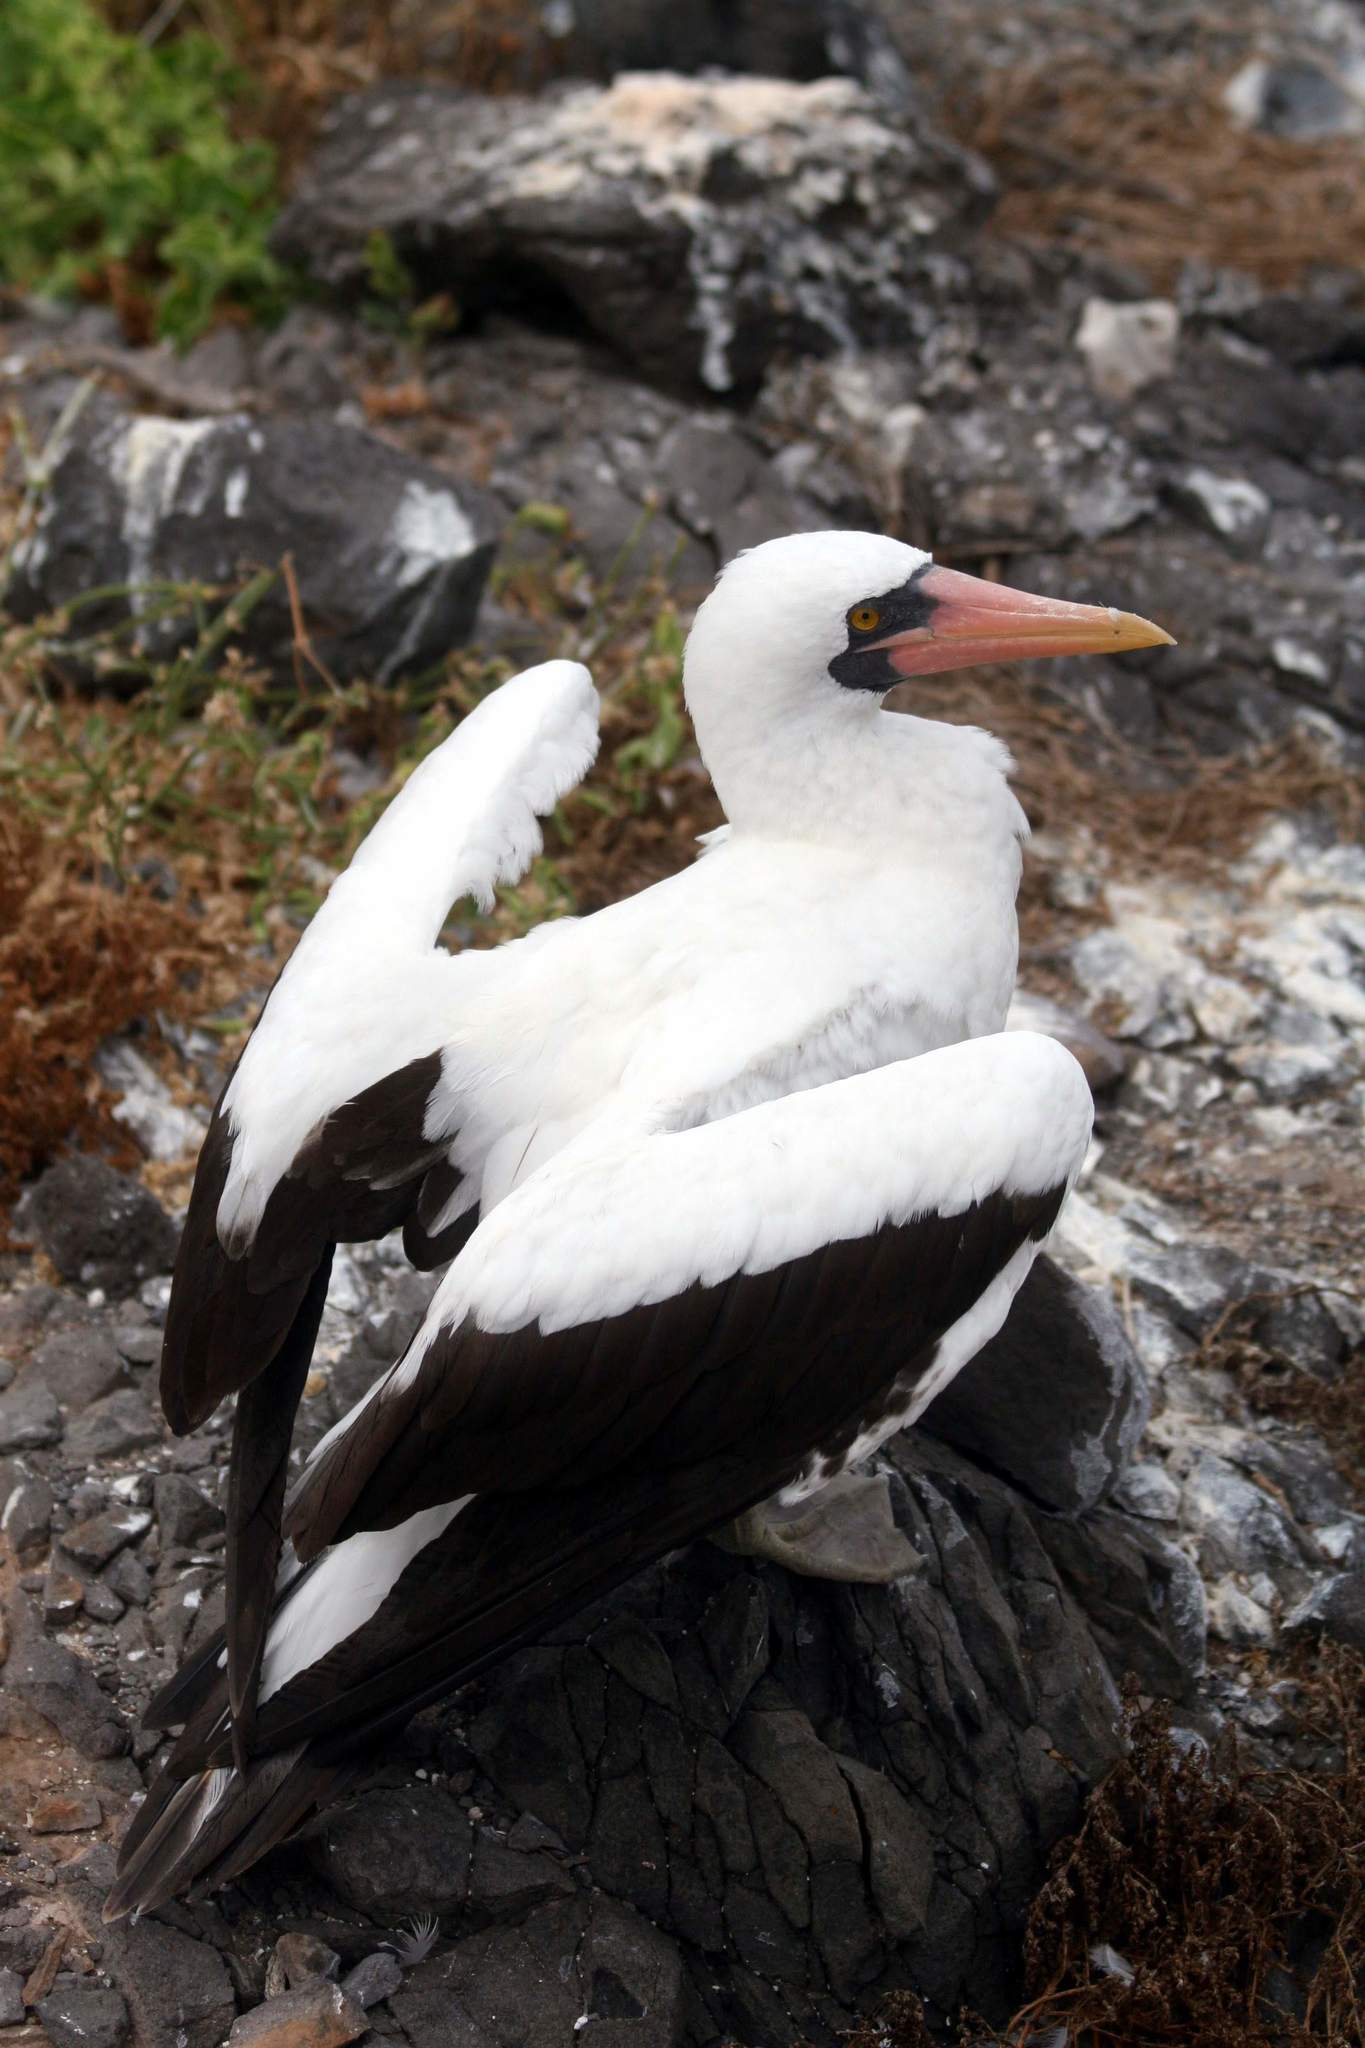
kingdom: Animalia
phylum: Chordata
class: Aves
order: Suliformes
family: Sulidae
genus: Sula
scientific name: Sula granti
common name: Nazca booby
